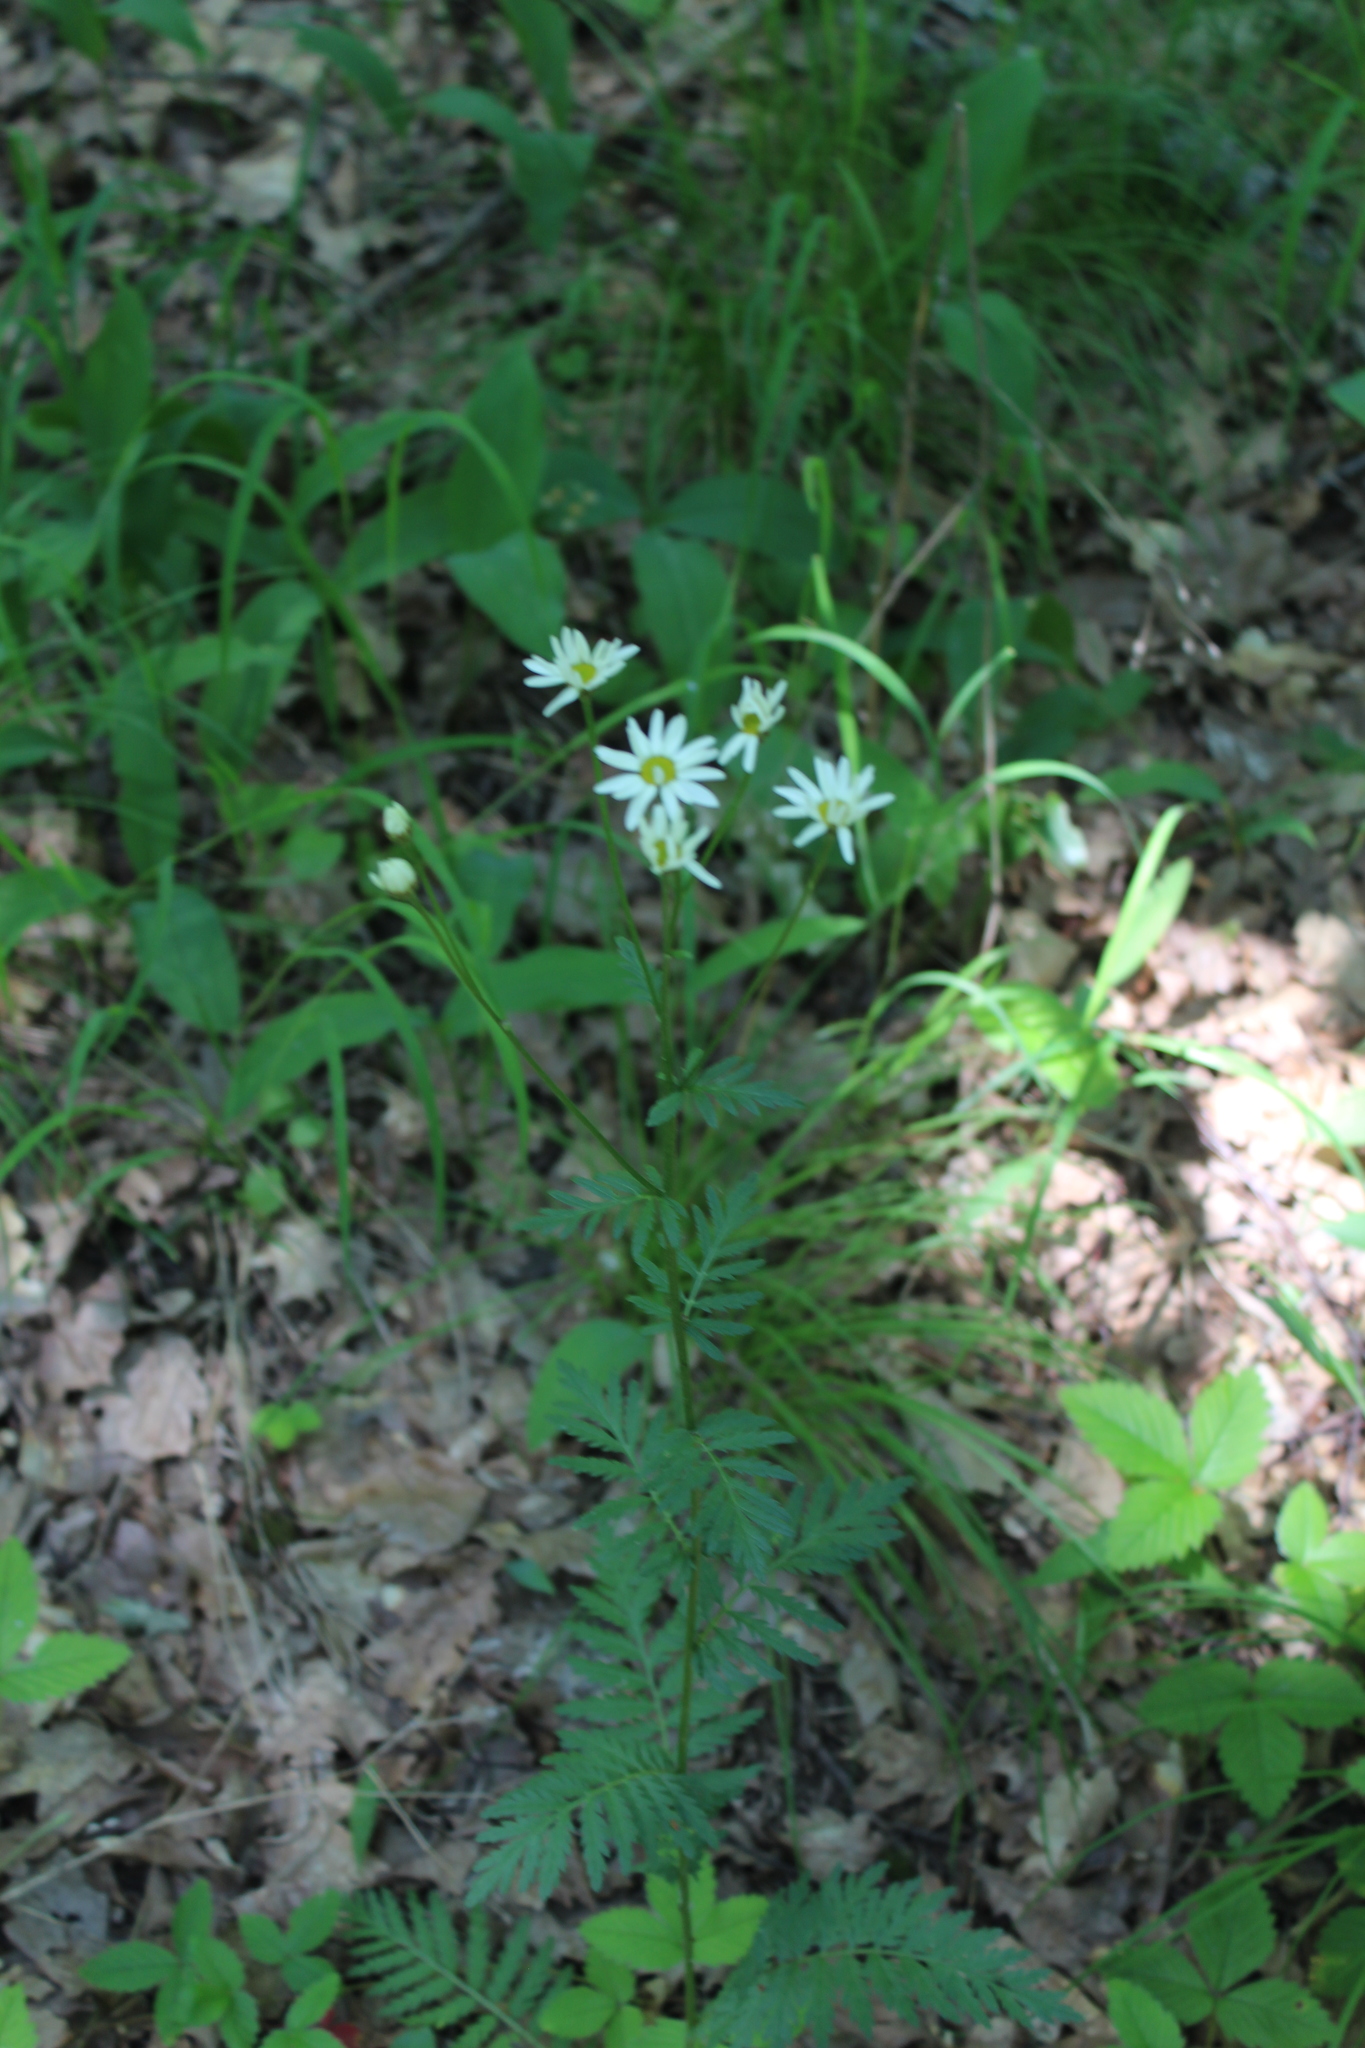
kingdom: Plantae
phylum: Tracheophyta
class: Magnoliopsida
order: Asterales
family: Asteraceae
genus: Tanacetum
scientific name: Tanacetum corymbosum
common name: Scentless feverfew
